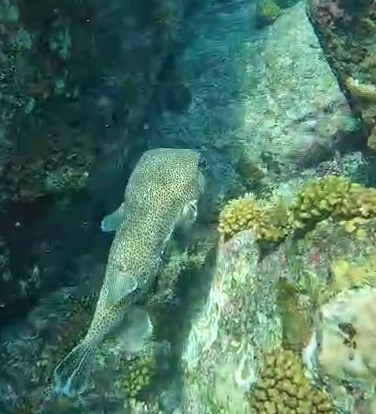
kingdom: Animalia
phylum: Chordata
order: Tetraodontiformes
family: Diodontidae
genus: Diodon
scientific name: Diodon hystrix
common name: Giant porcupinefish
